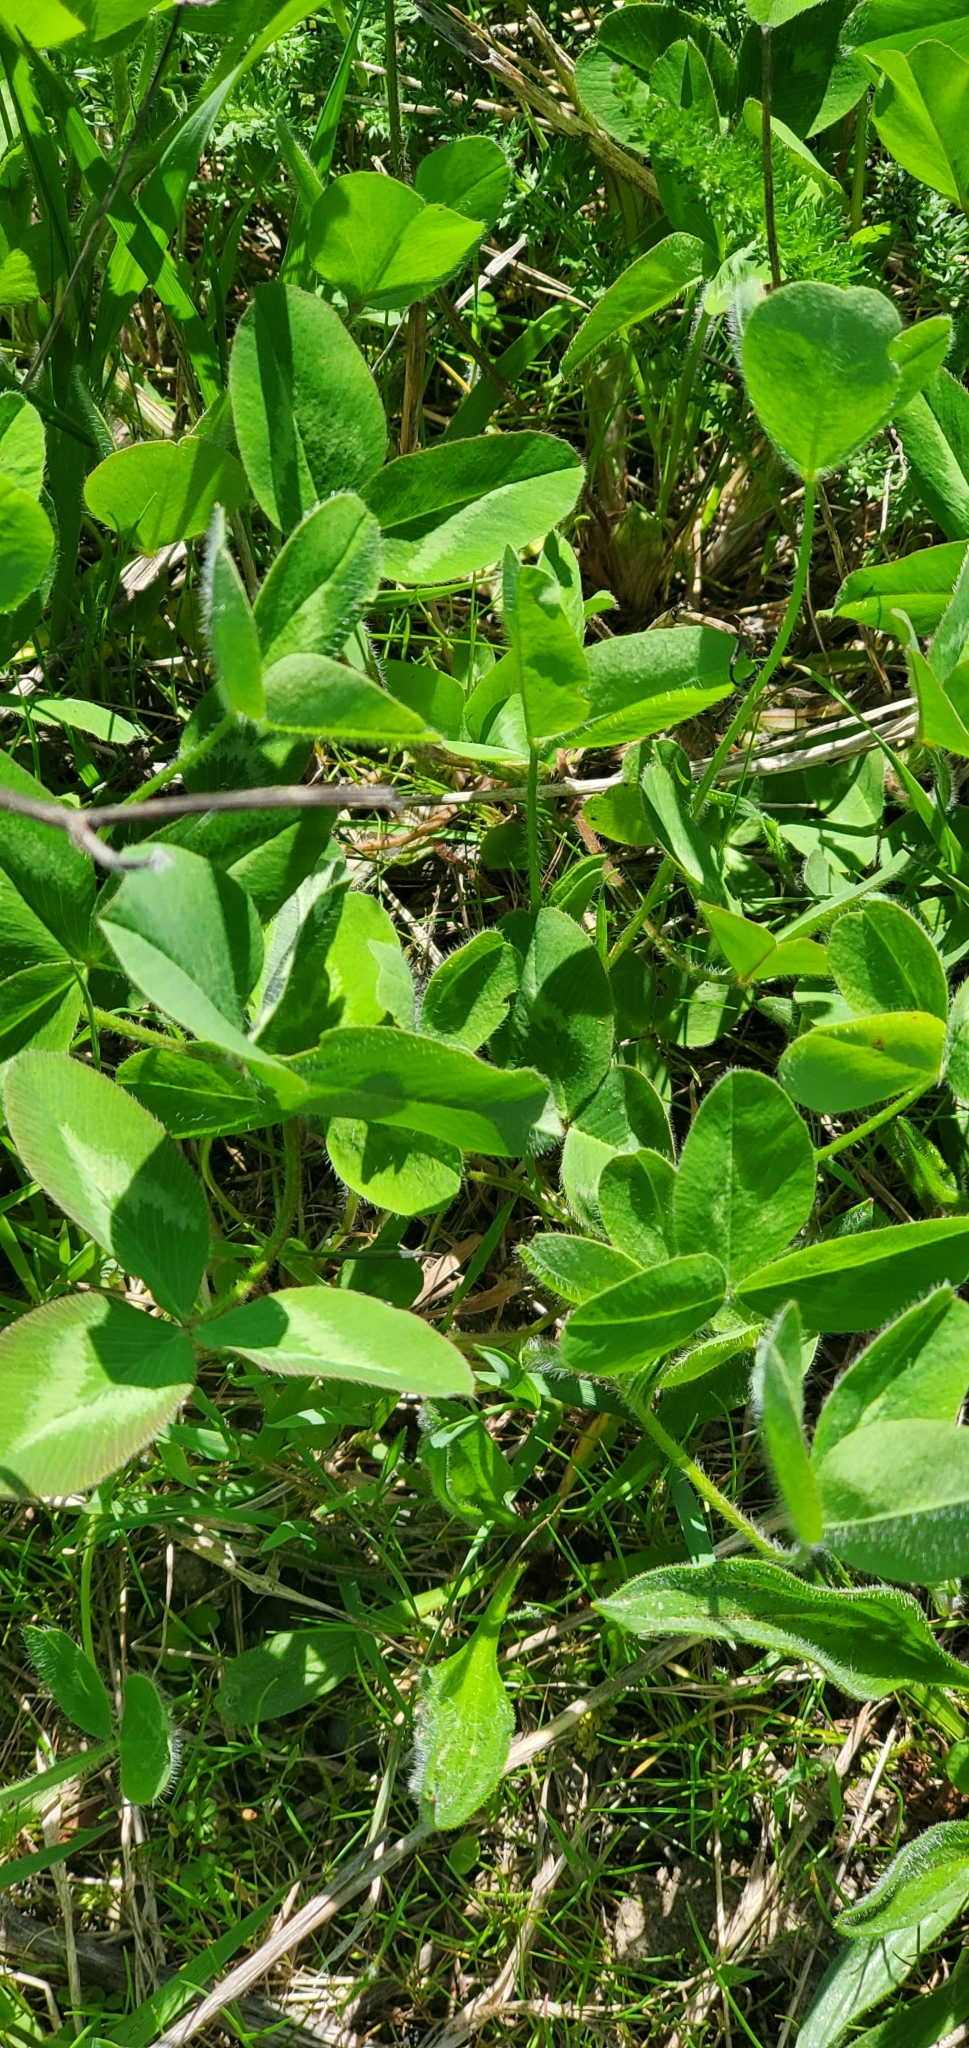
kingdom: Plantae
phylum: Tracheophyta
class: Magnoliopsida
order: Fabales
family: Fabaceae
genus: Trifolium
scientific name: Trifolium pratense
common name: Red clover
